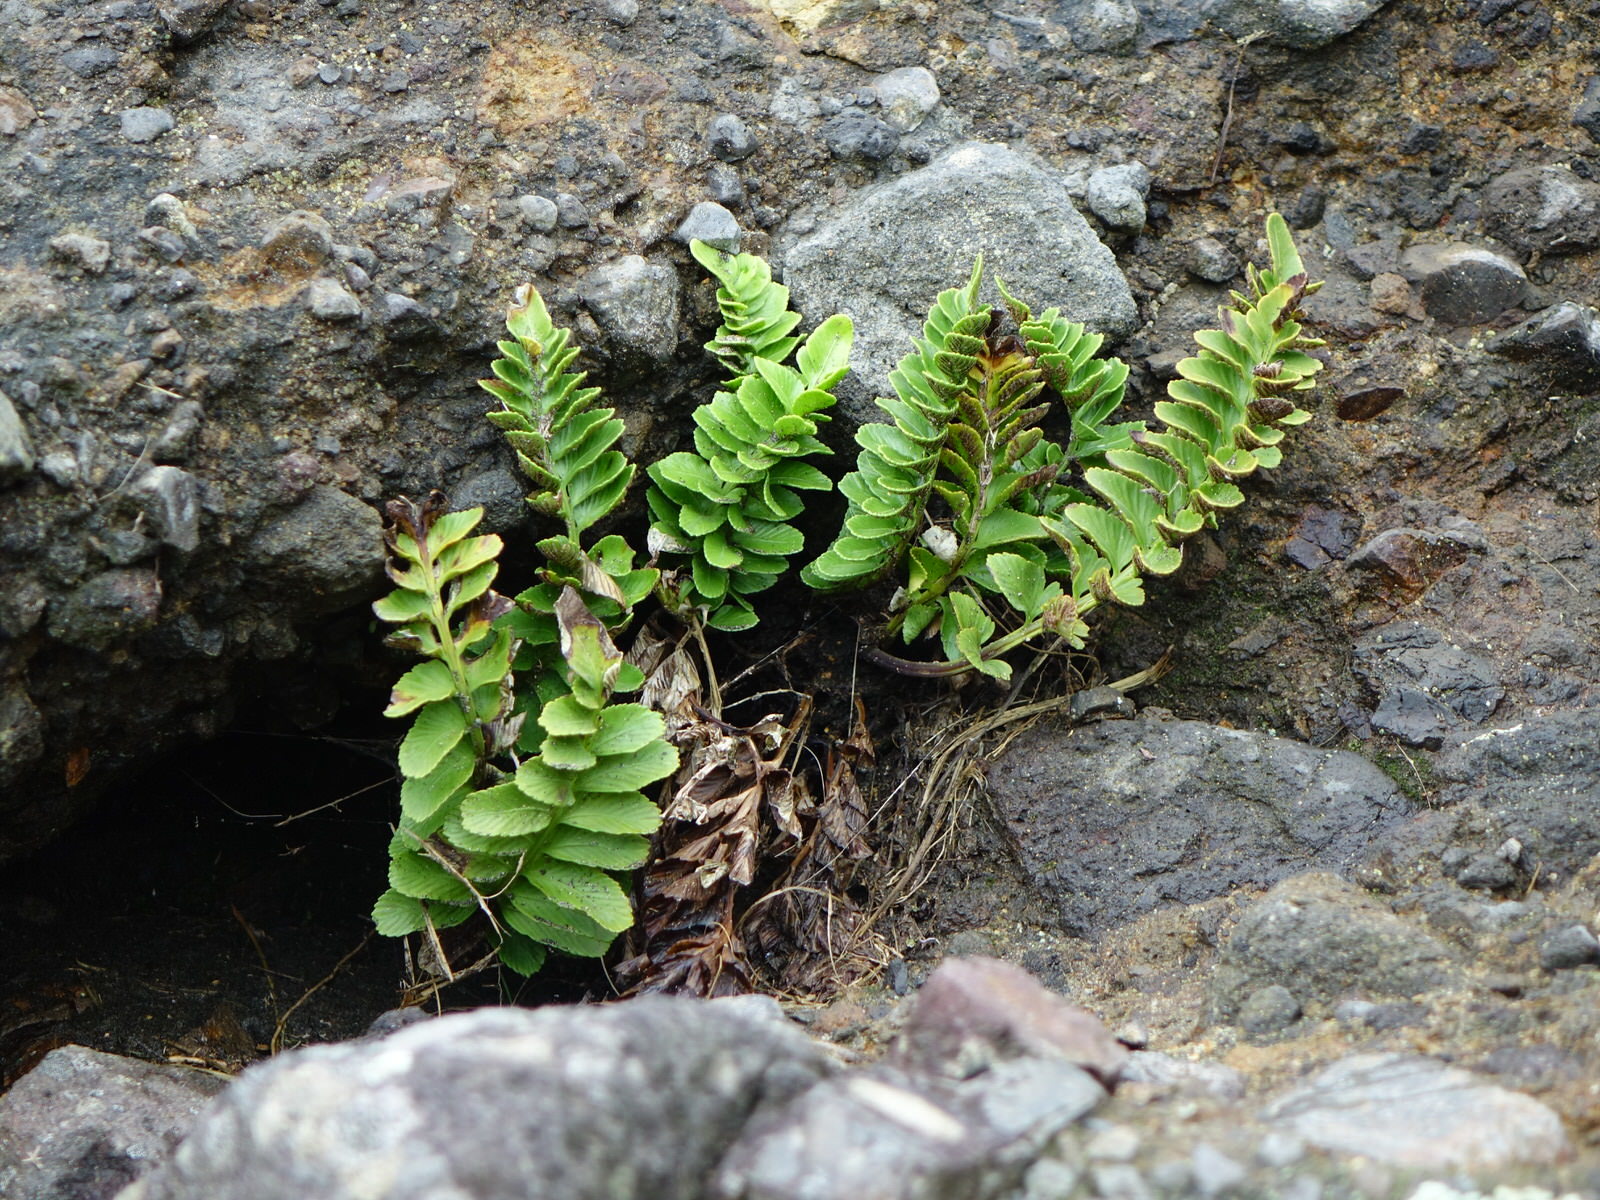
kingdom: Plantae
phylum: Tracheophyta
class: Polypodiopsida
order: Polypodiales
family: Aspleniaceae
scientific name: Aspleniaceae
